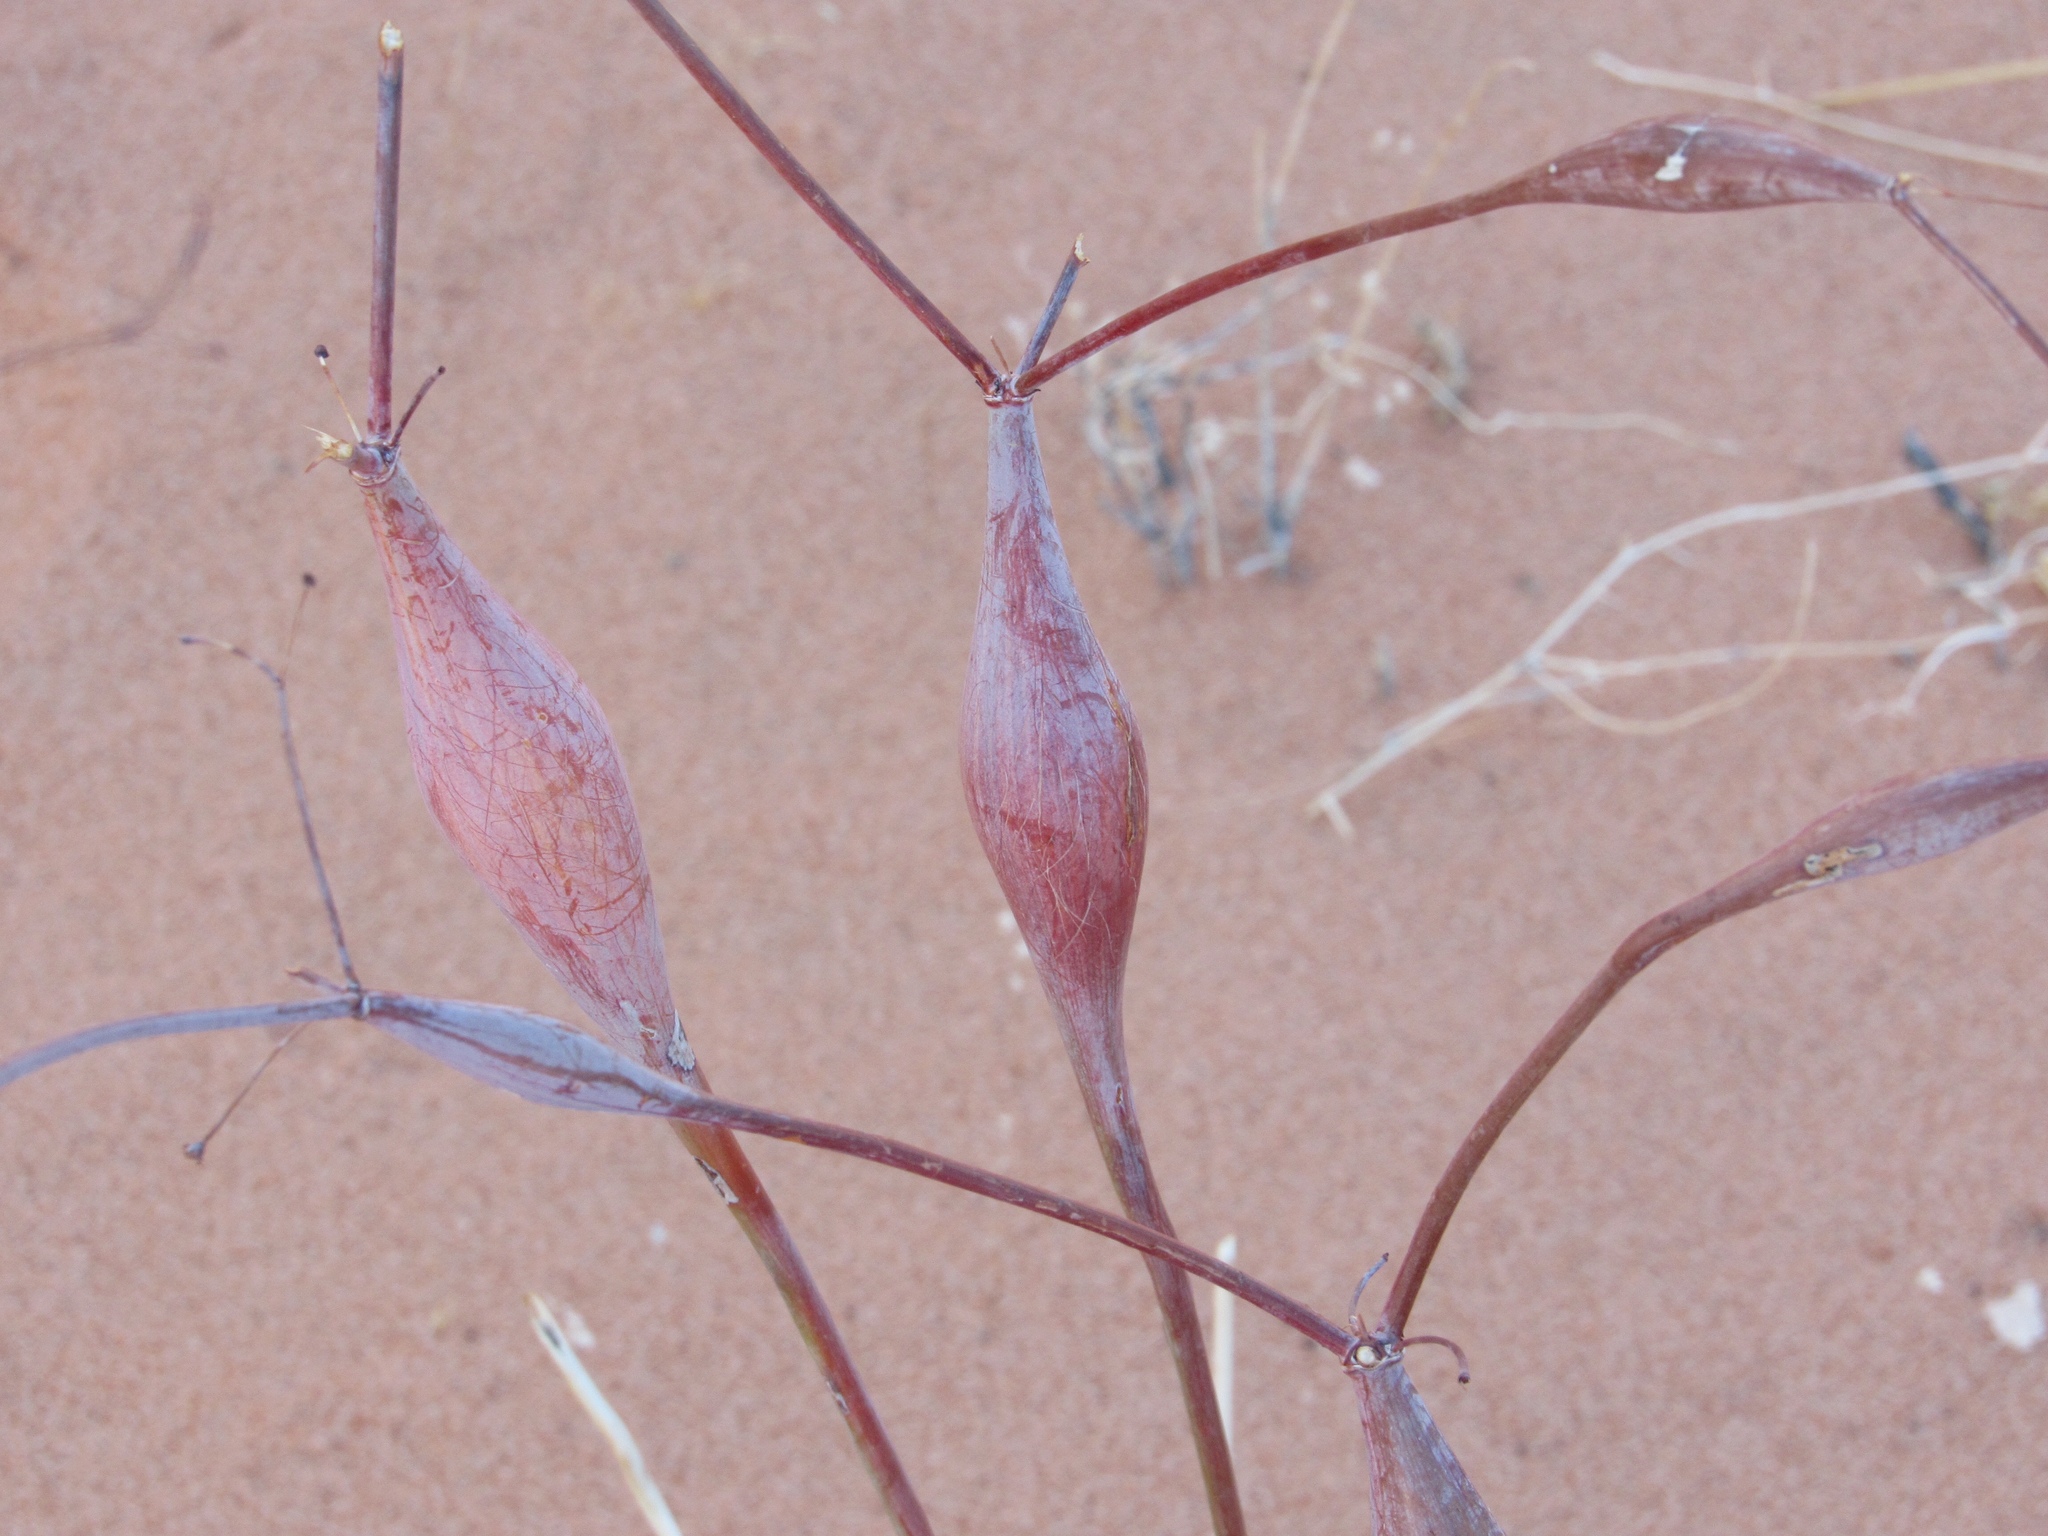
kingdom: Plantae
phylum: Tracheophyta
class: Magnoliopsida
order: Caryophyllales
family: Polygonaceae
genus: Eriogonum
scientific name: Eriogonum inflatum
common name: Desert trumpet
